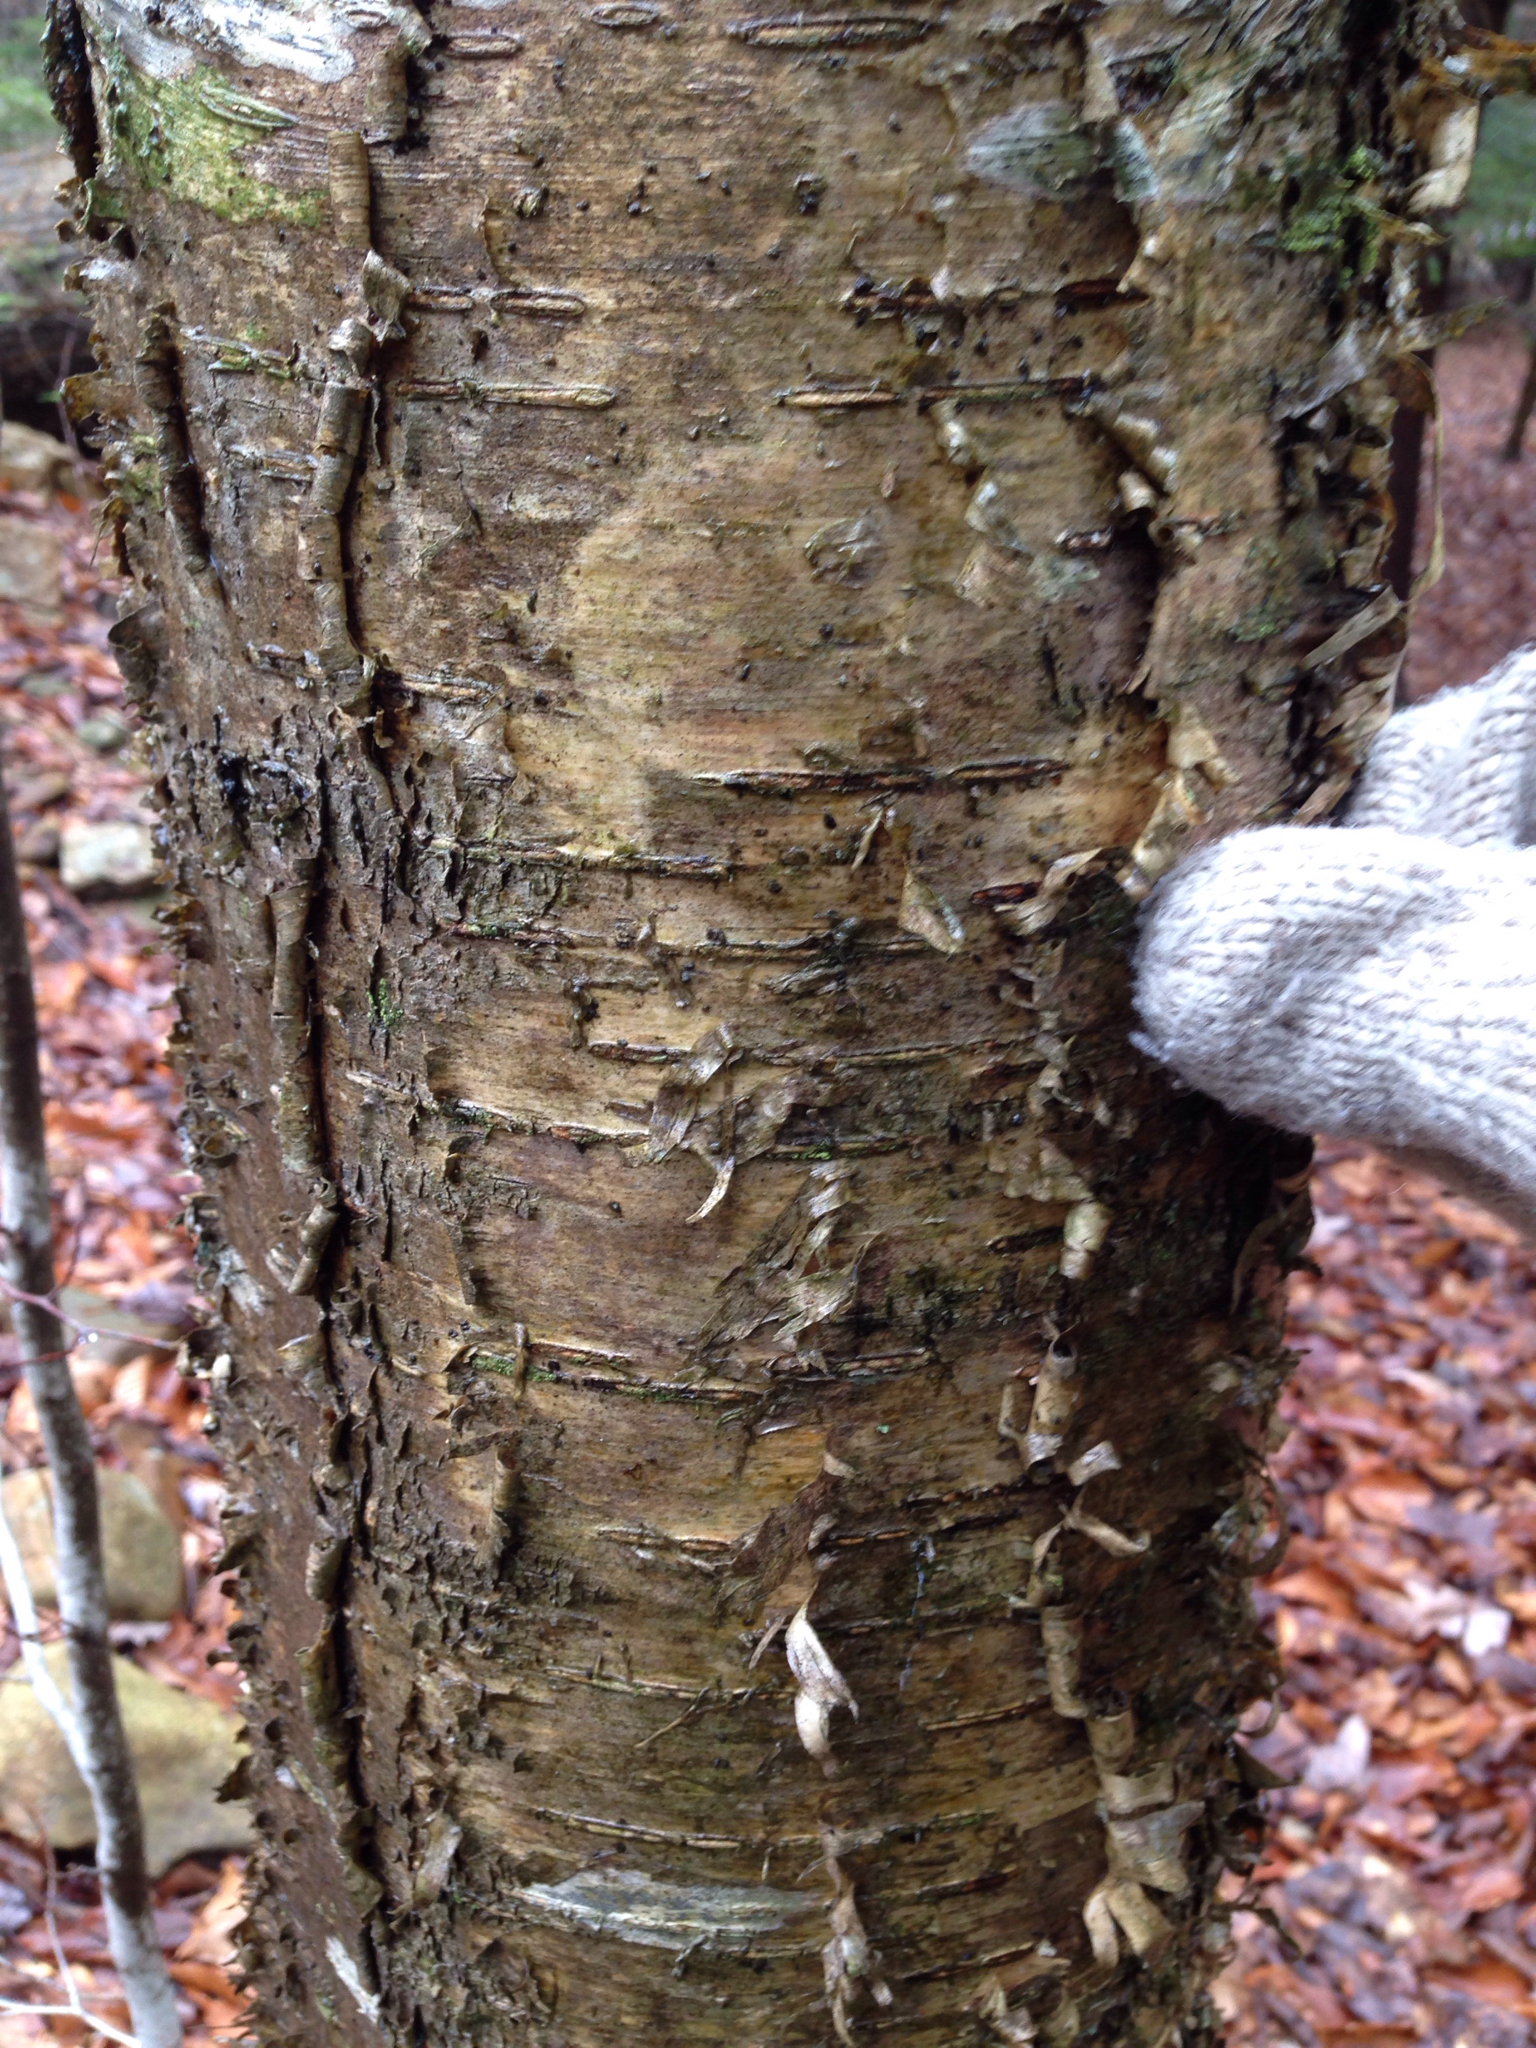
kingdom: Plantae
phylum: Tracheophyta
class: Magnoliopsida
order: Fagales
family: Betulaceae
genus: Betula
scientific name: Betula alleghaniensis
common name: Yellow birch
